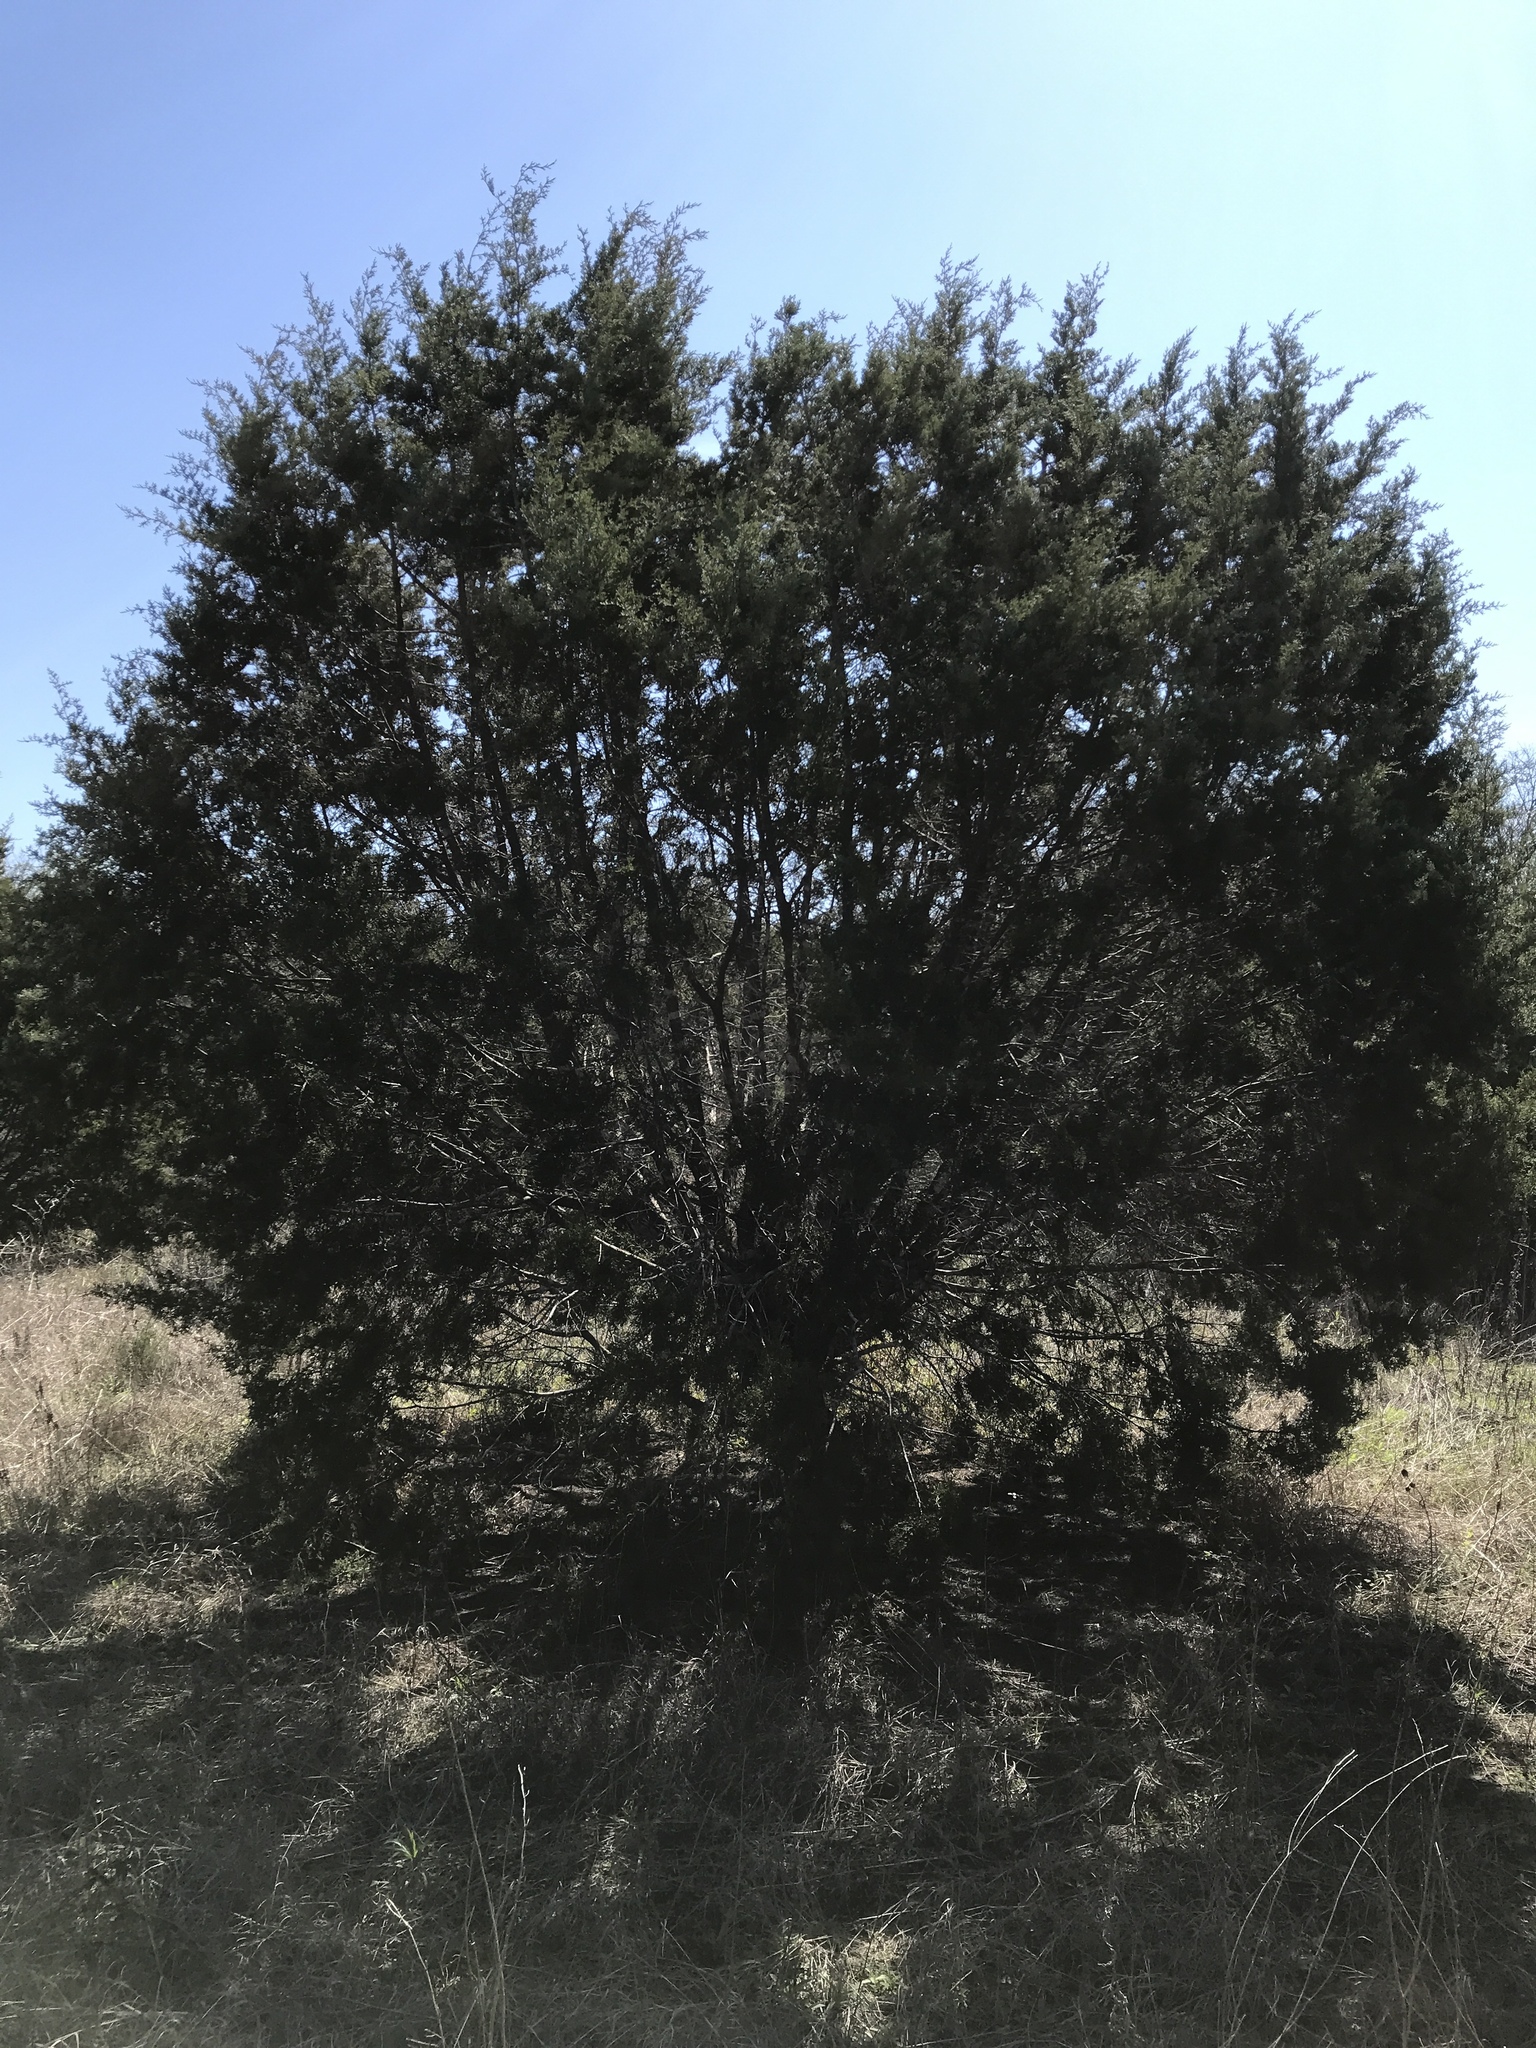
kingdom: Fungi
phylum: Ascomycota
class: Lecanoromycetes
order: Ostropales
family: Stictidaceae
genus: Robergea
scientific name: Robergea
